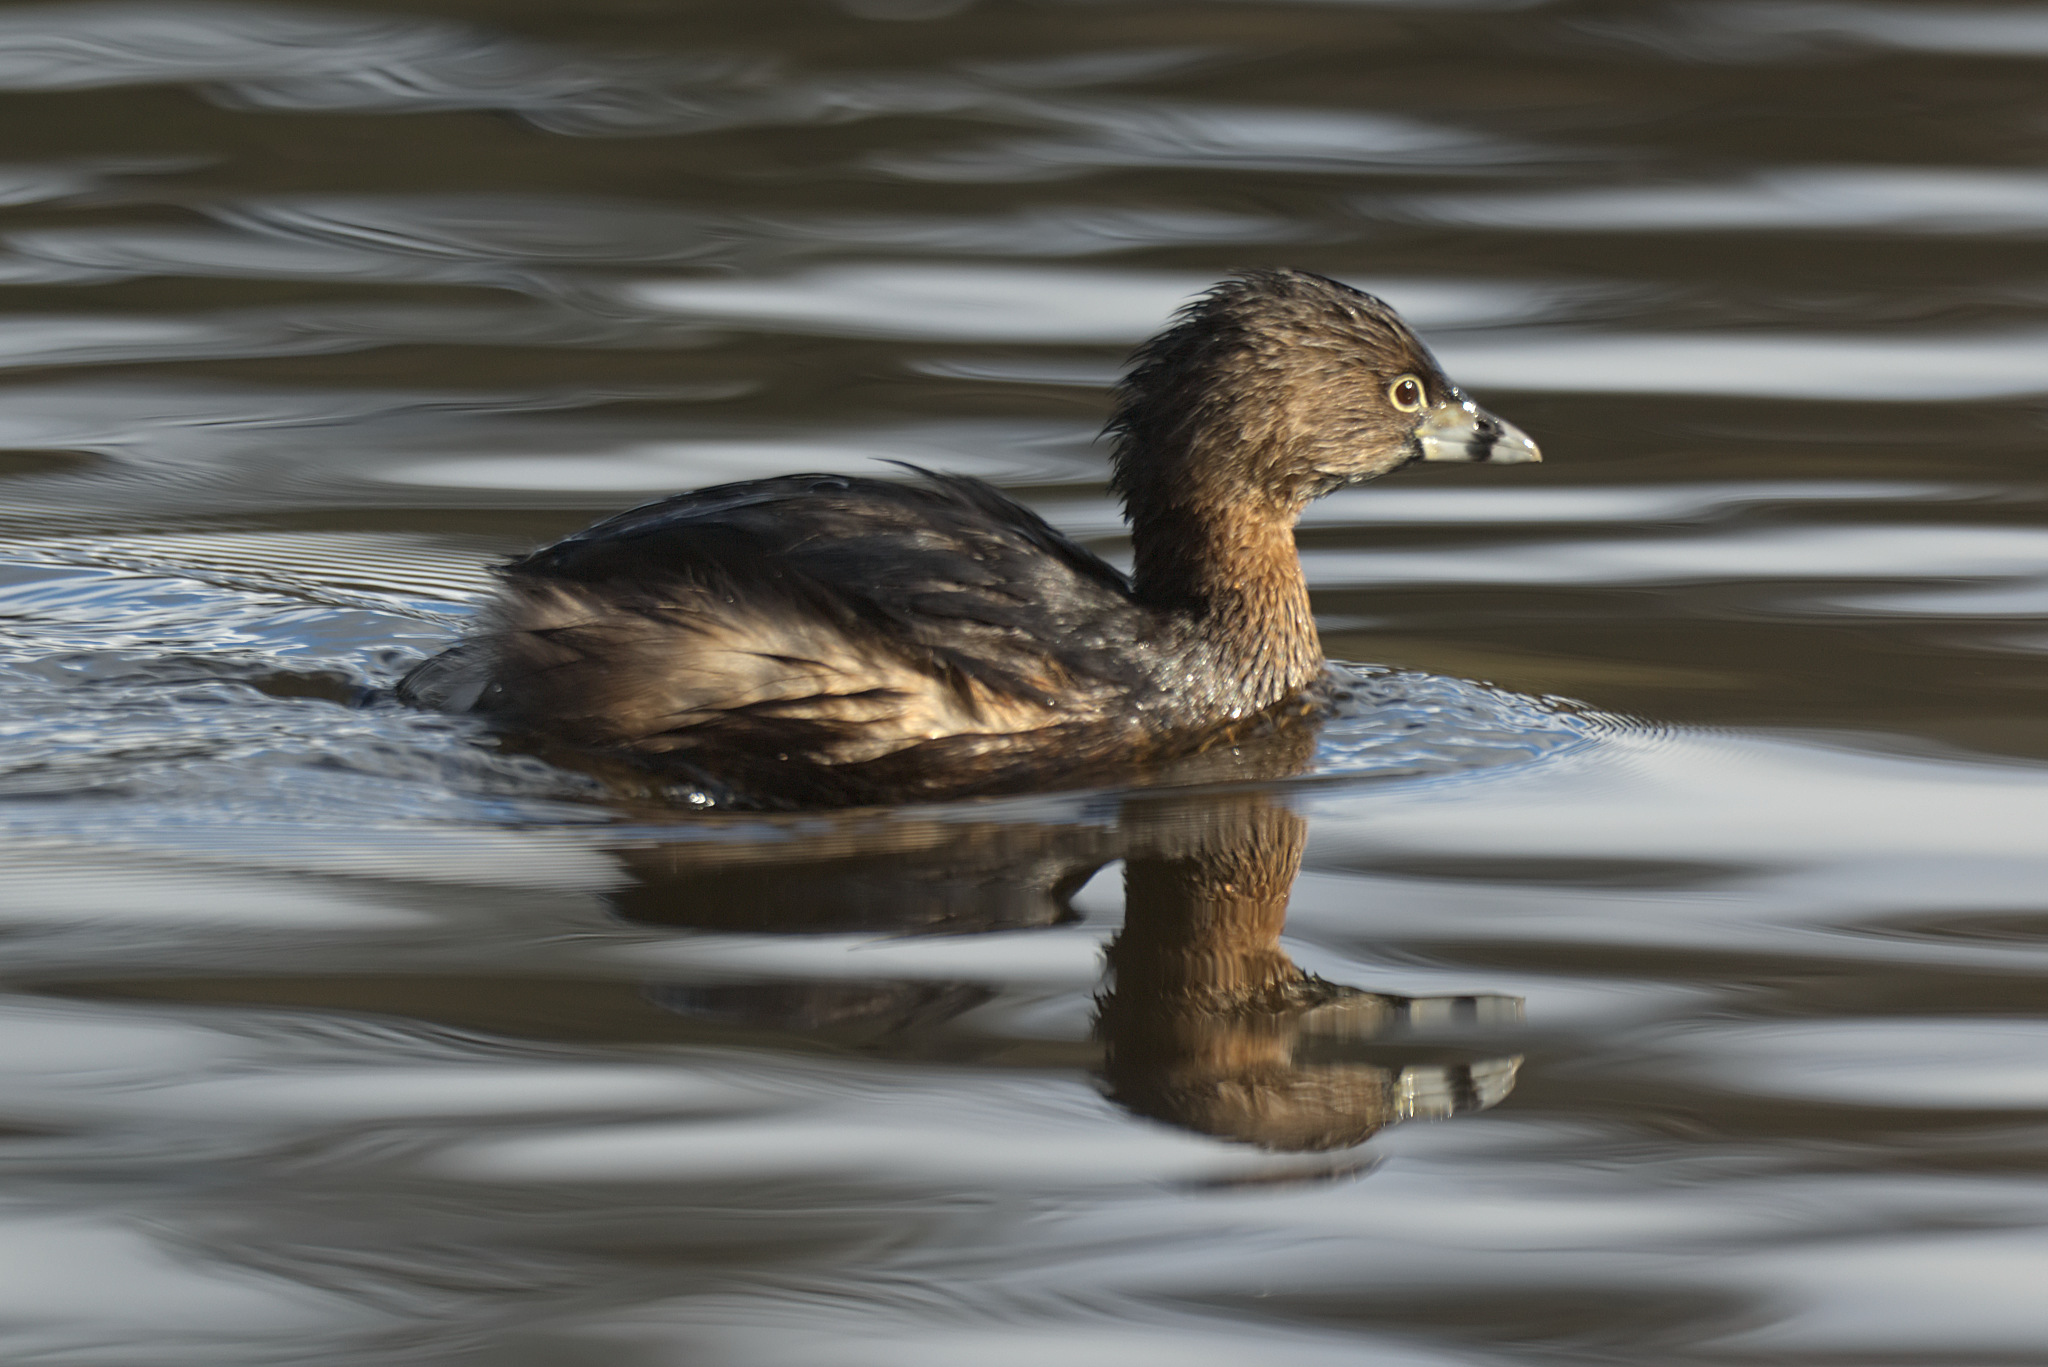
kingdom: Animalia
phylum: Chordata
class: Aves
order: Podicipediformes
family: Podicipedidae
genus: Podilymbus
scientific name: Podilymbus podiceps
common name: Pied-billed grebe
